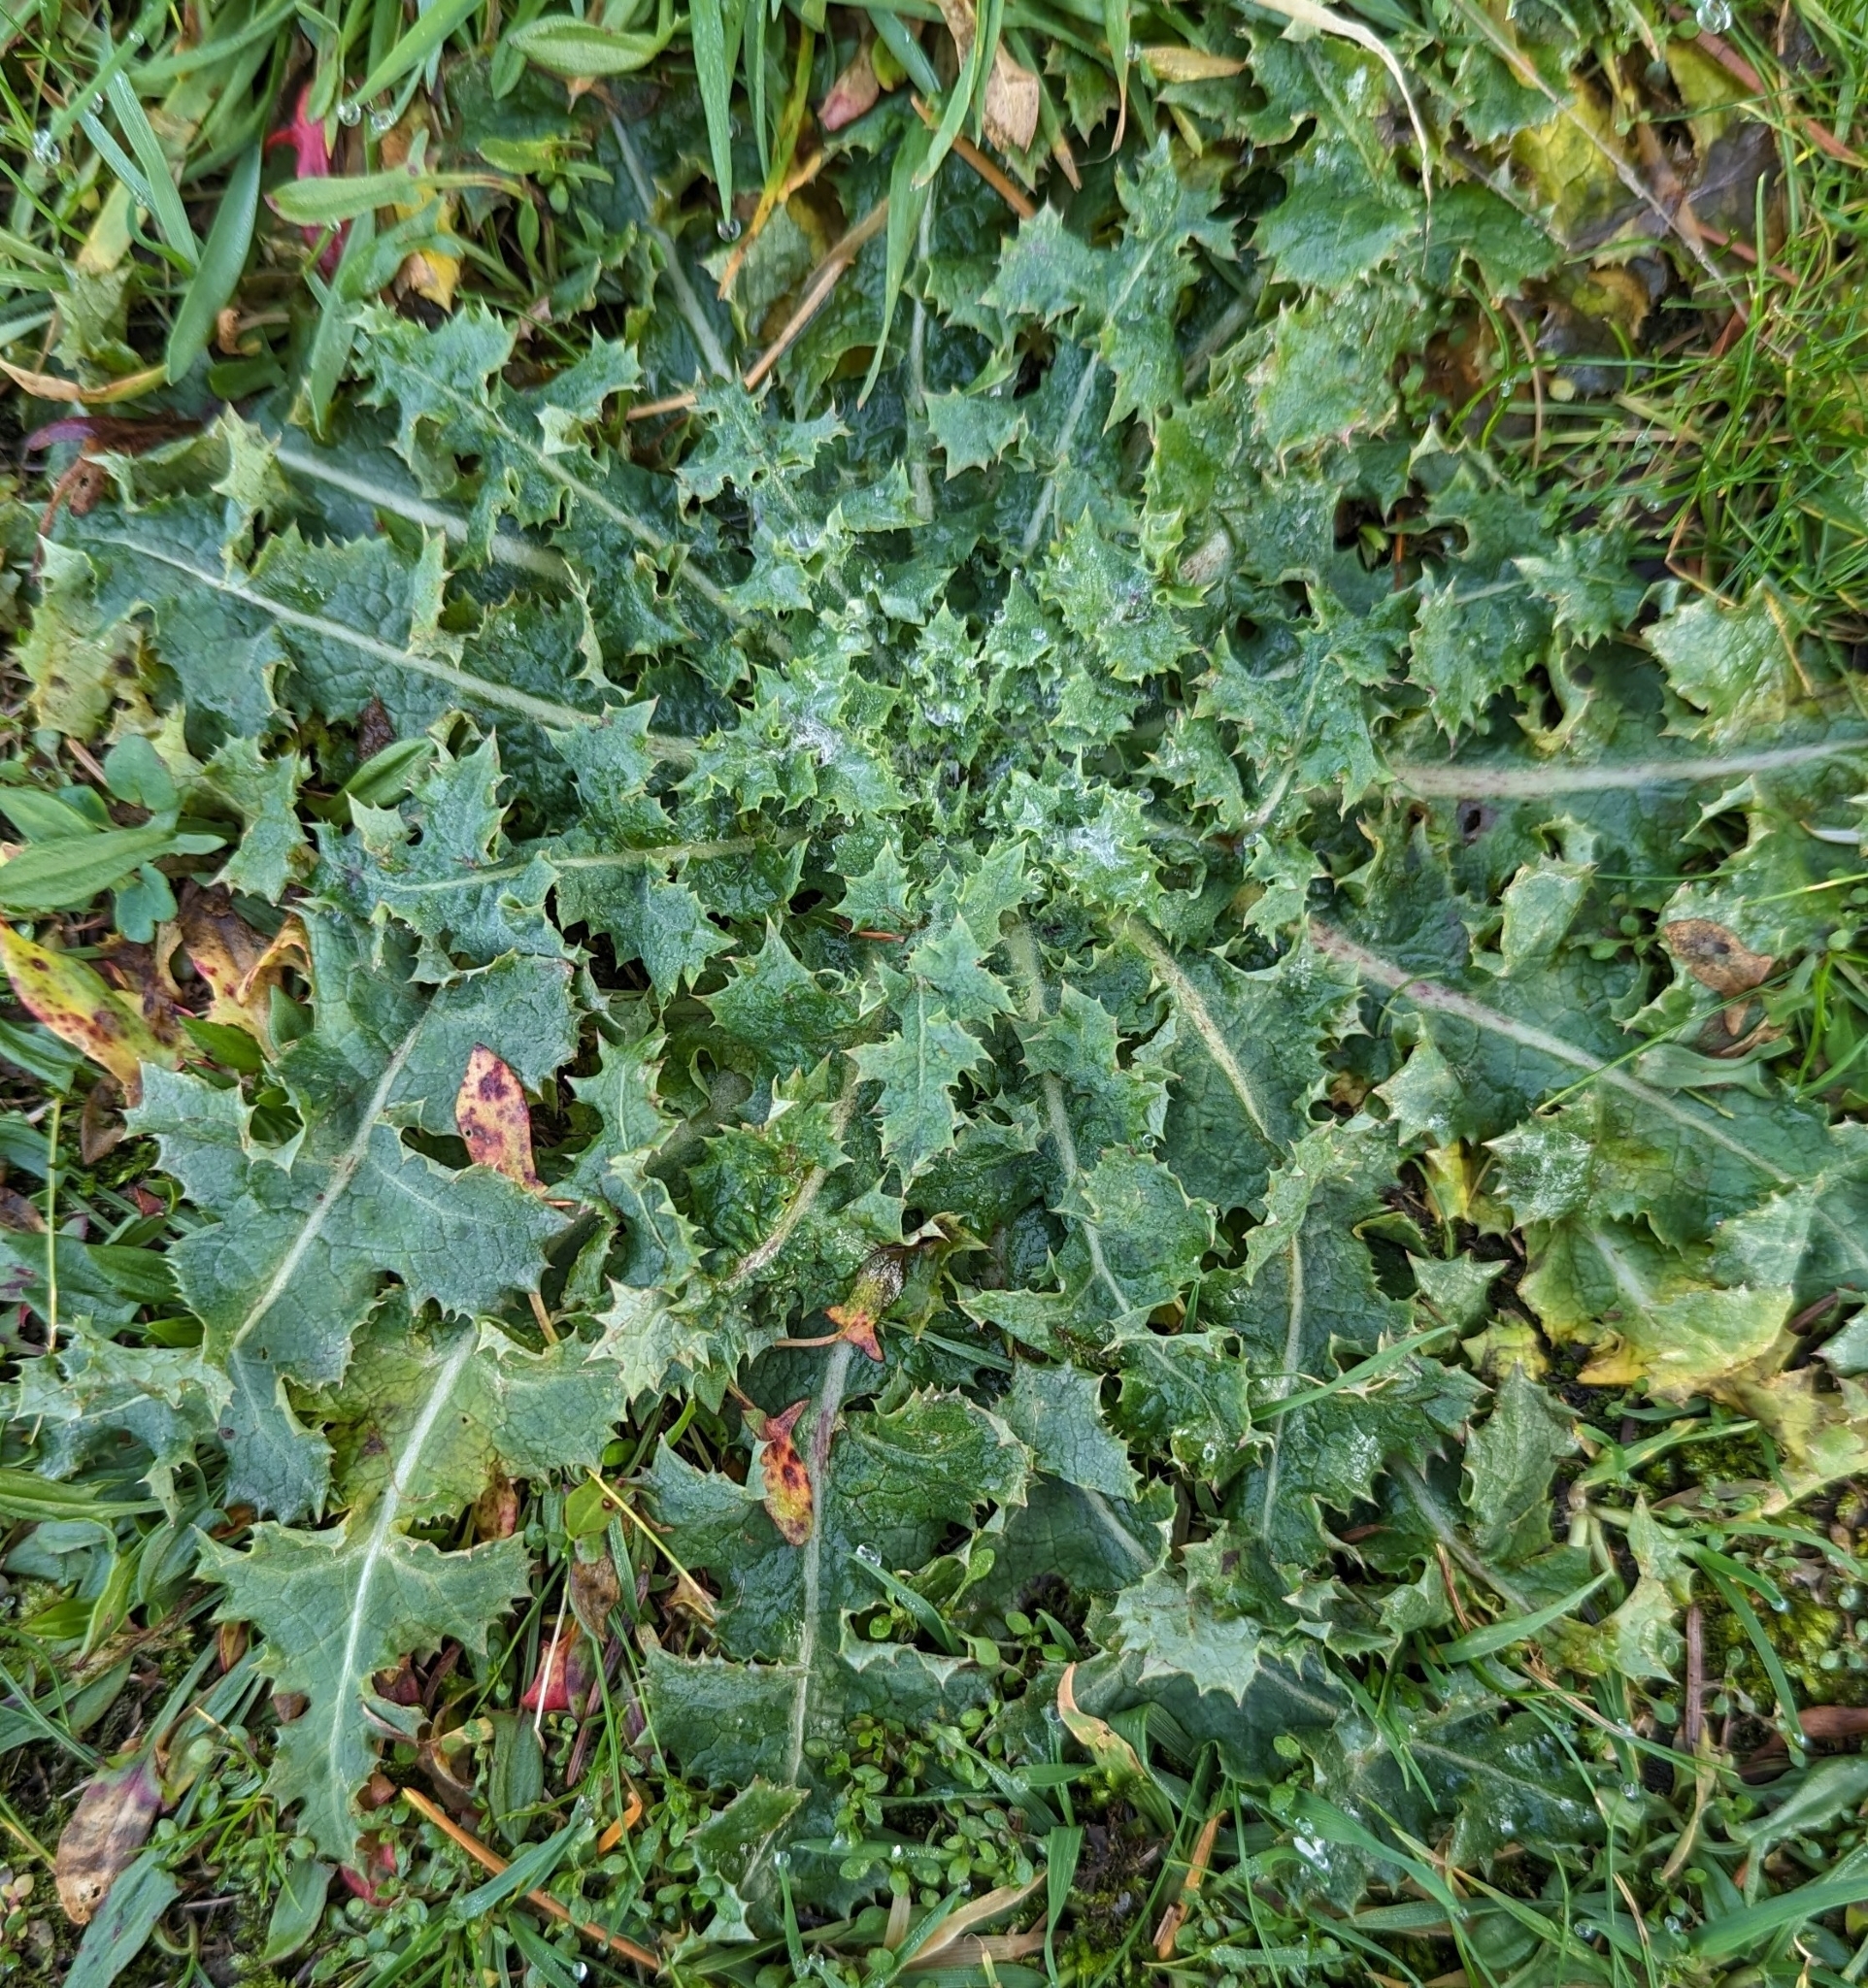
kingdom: Plantae
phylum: Tracheophyta
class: Magnoliopsida
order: Asterales
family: Asteraceae
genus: Sonchus
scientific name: Sonchus asper
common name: Prickly sow-thistle
